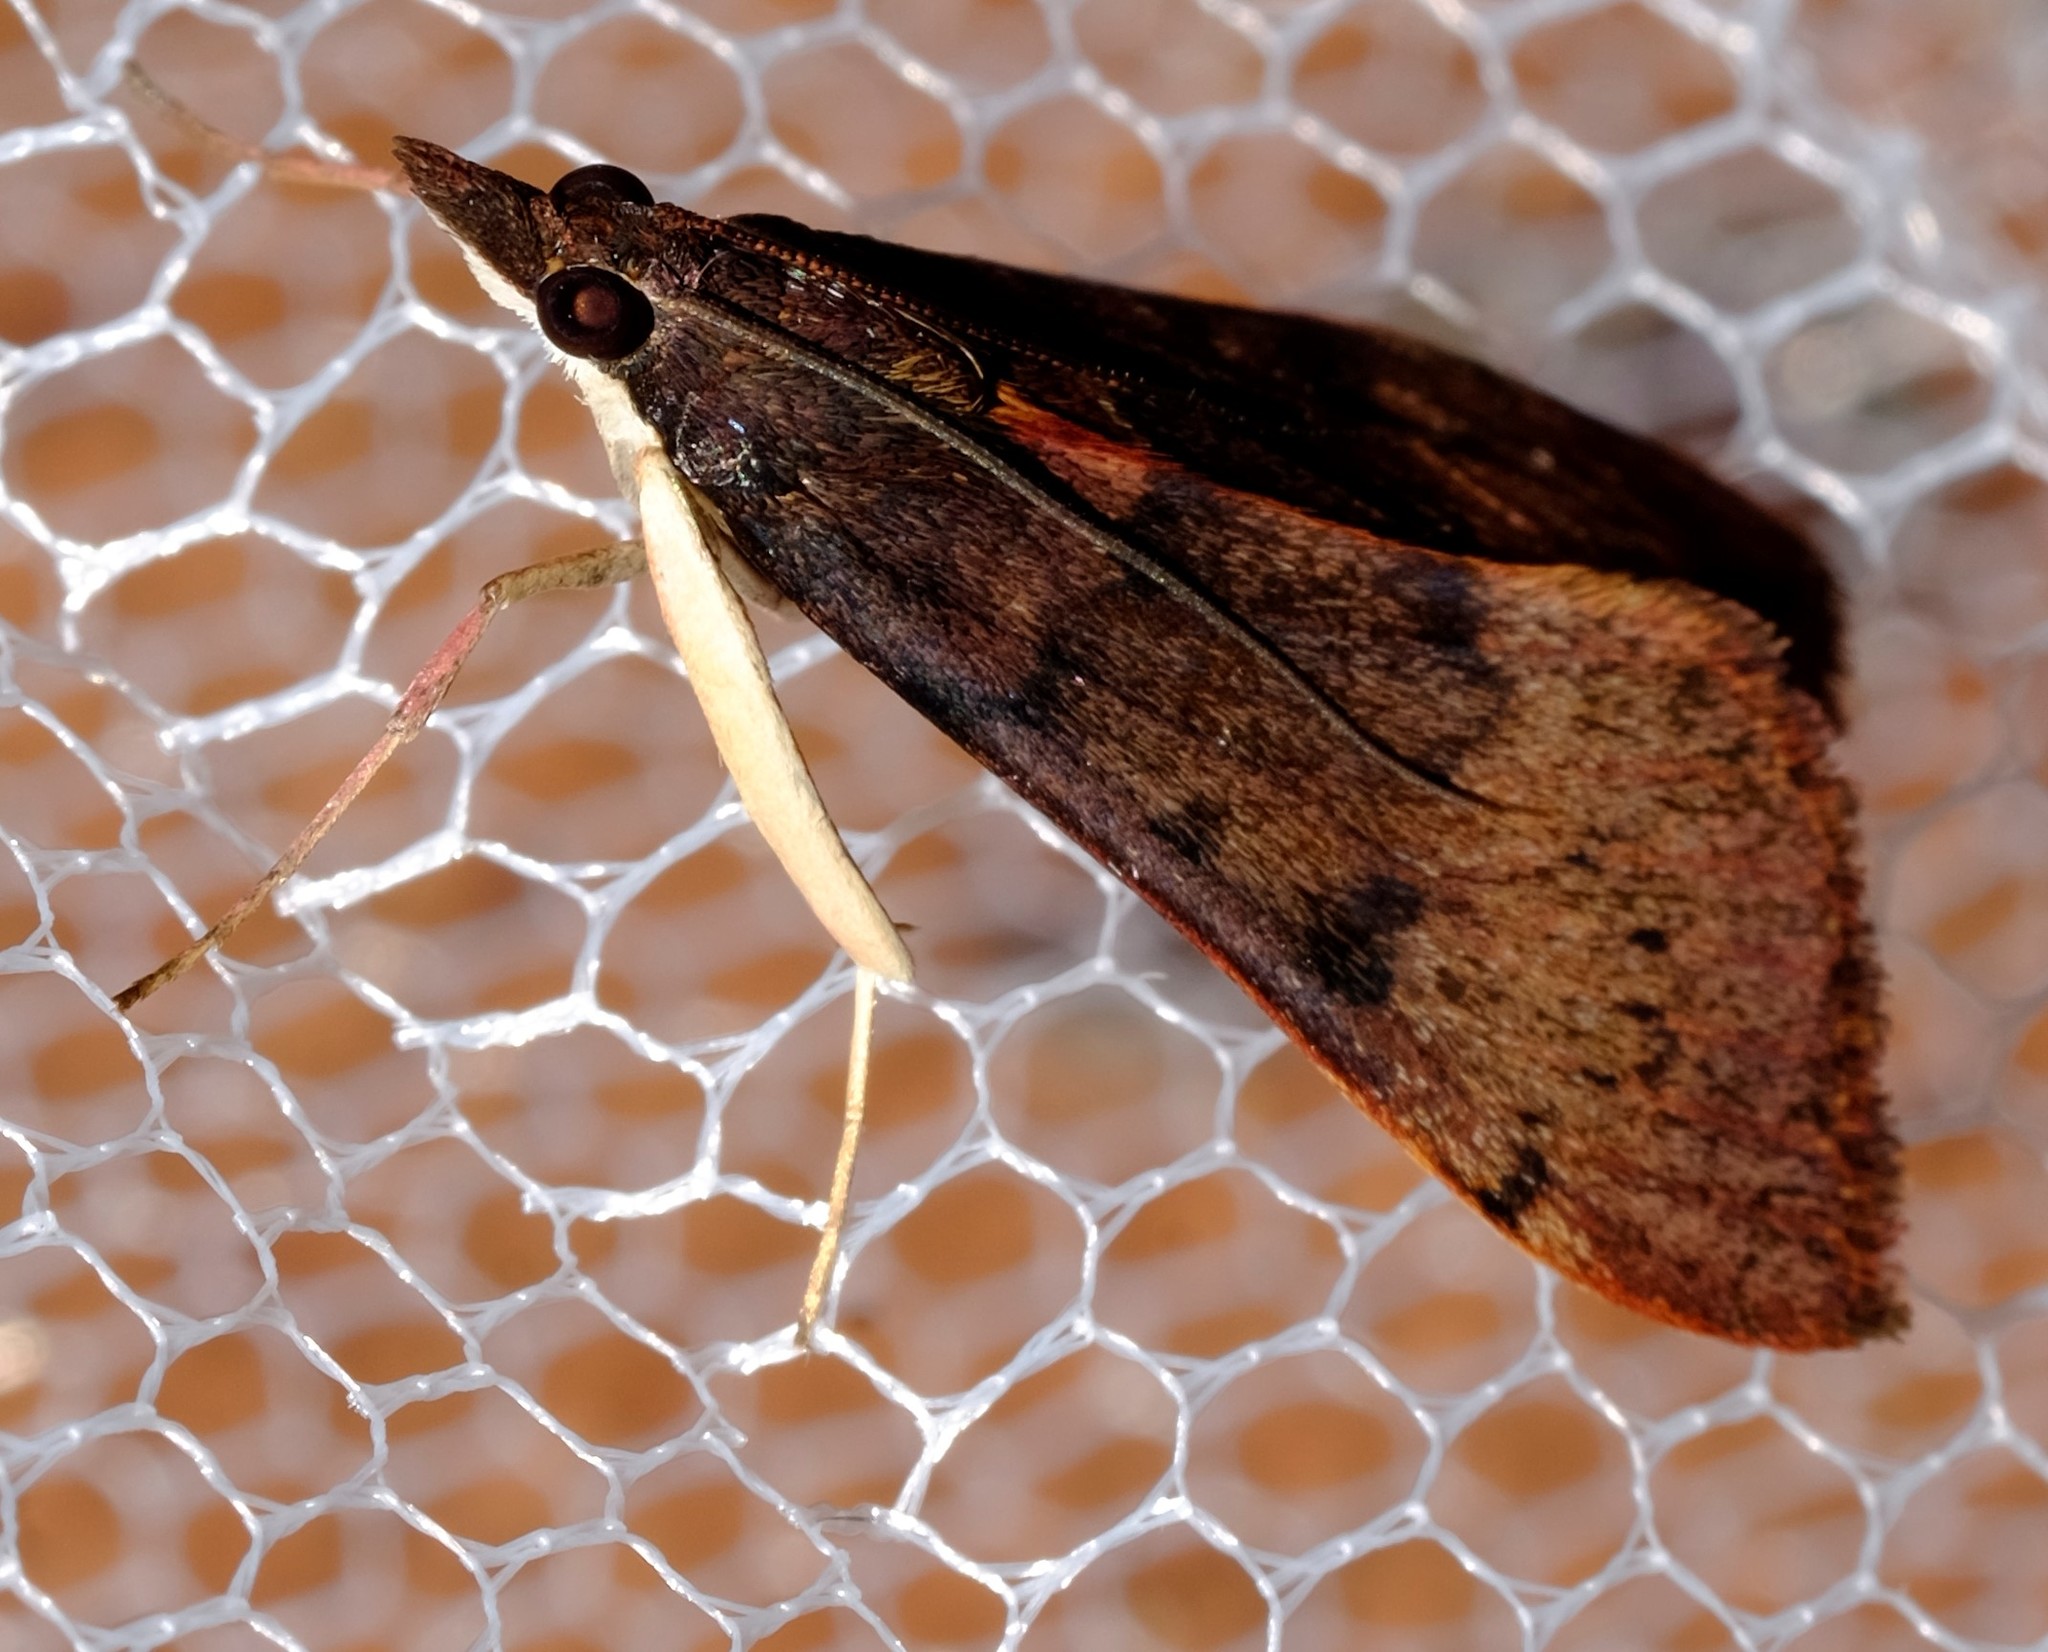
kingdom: Animalia
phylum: Arthropoda
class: Insecta
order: Lepidoptera
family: Crambidae
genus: Uresiphita
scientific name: Uresiphita ornithopteralis
